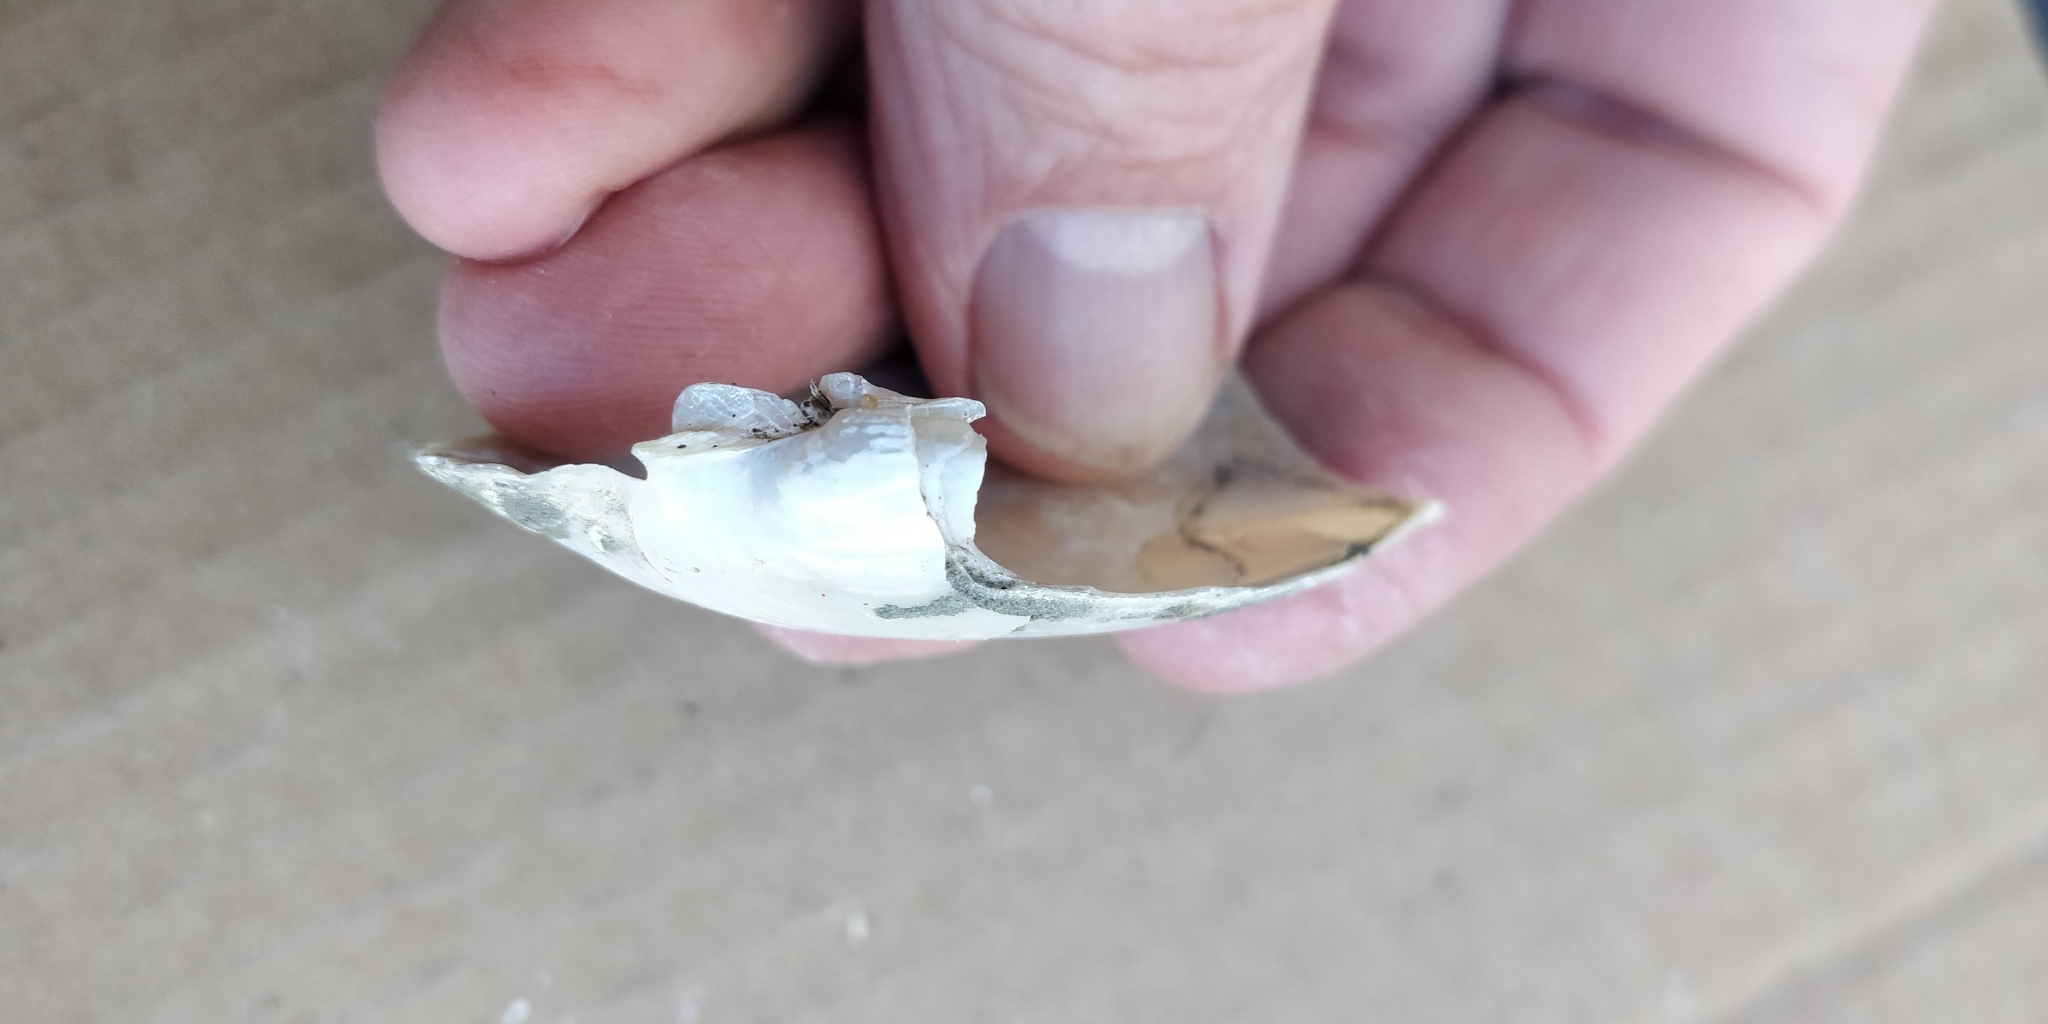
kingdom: Animalia
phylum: Mollusca
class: Bivalvia
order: Unionida
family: Unionidae
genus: Lampsilis
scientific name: Lampsilis teres
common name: Yellow sandshell
